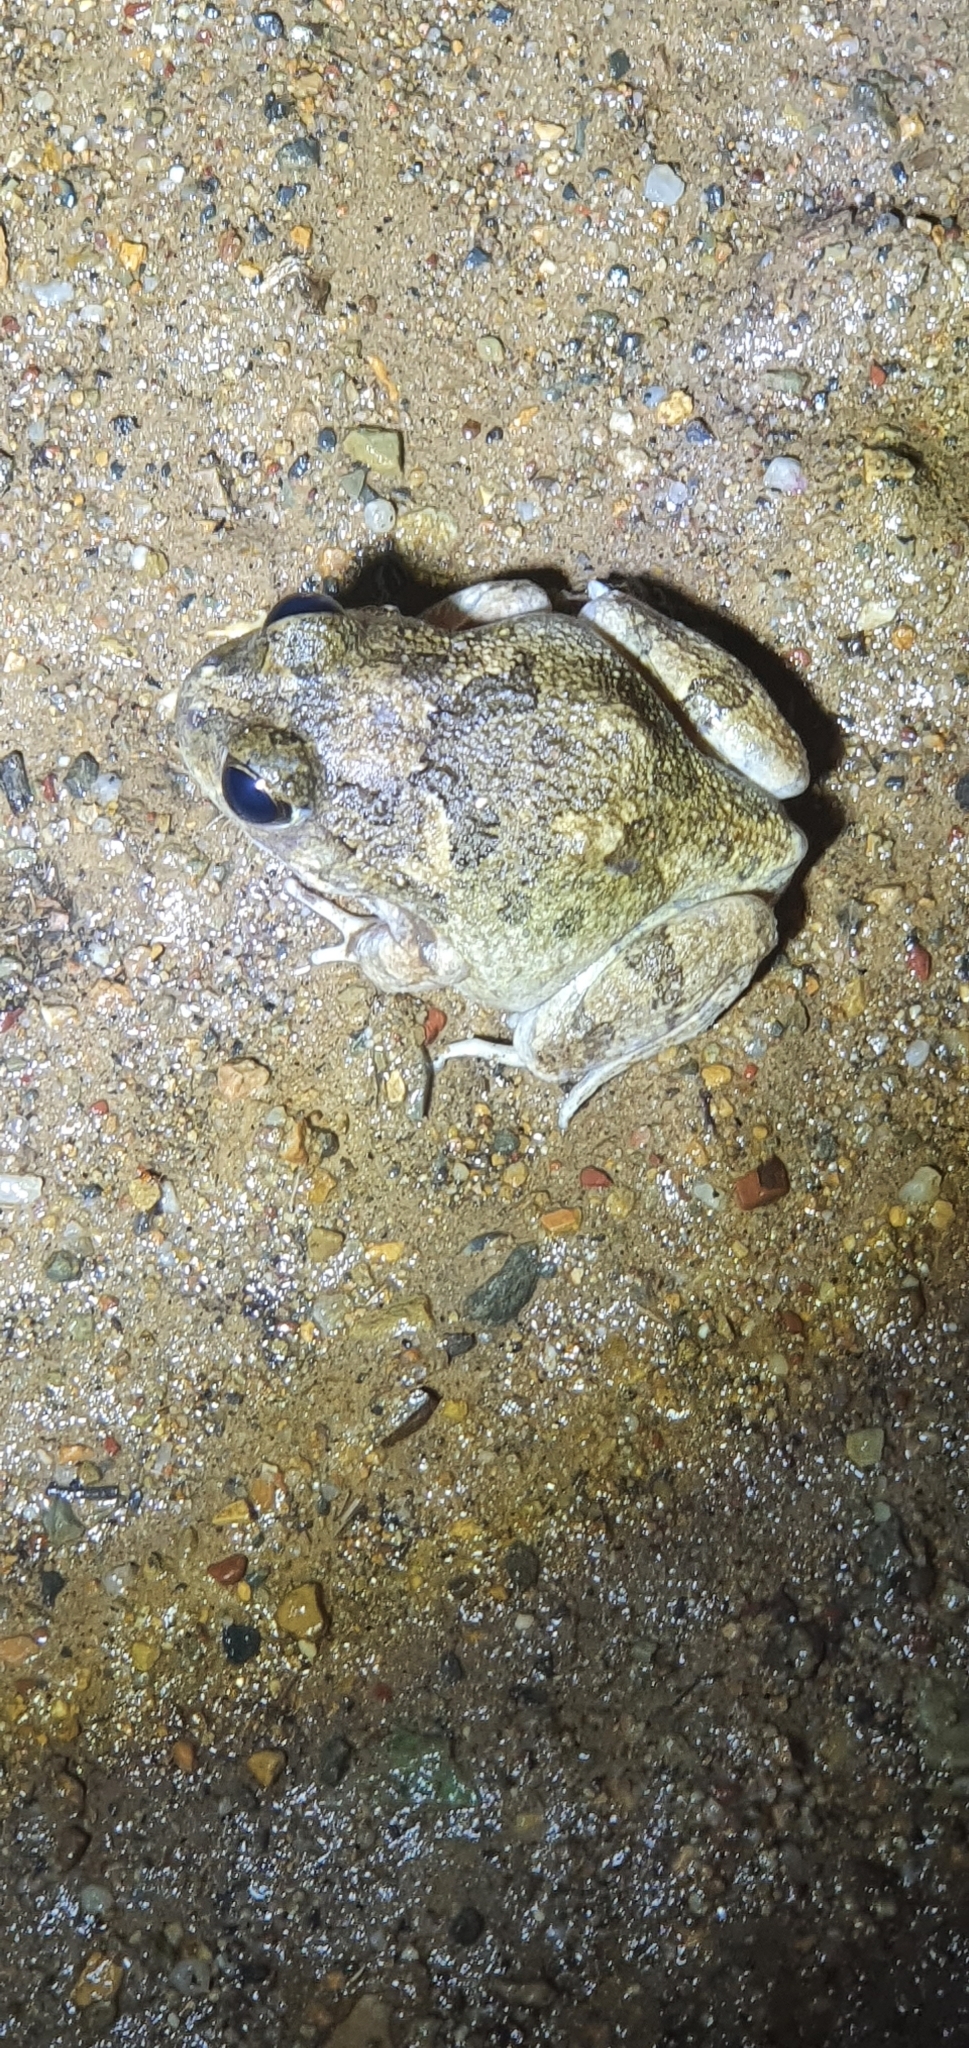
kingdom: Animalia
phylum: Chordata
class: Amphibia
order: Anura
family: Limnodynastidae
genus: Platyplectrum
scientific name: Platyplectrum ornatum
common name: Ornate burrowing frog
